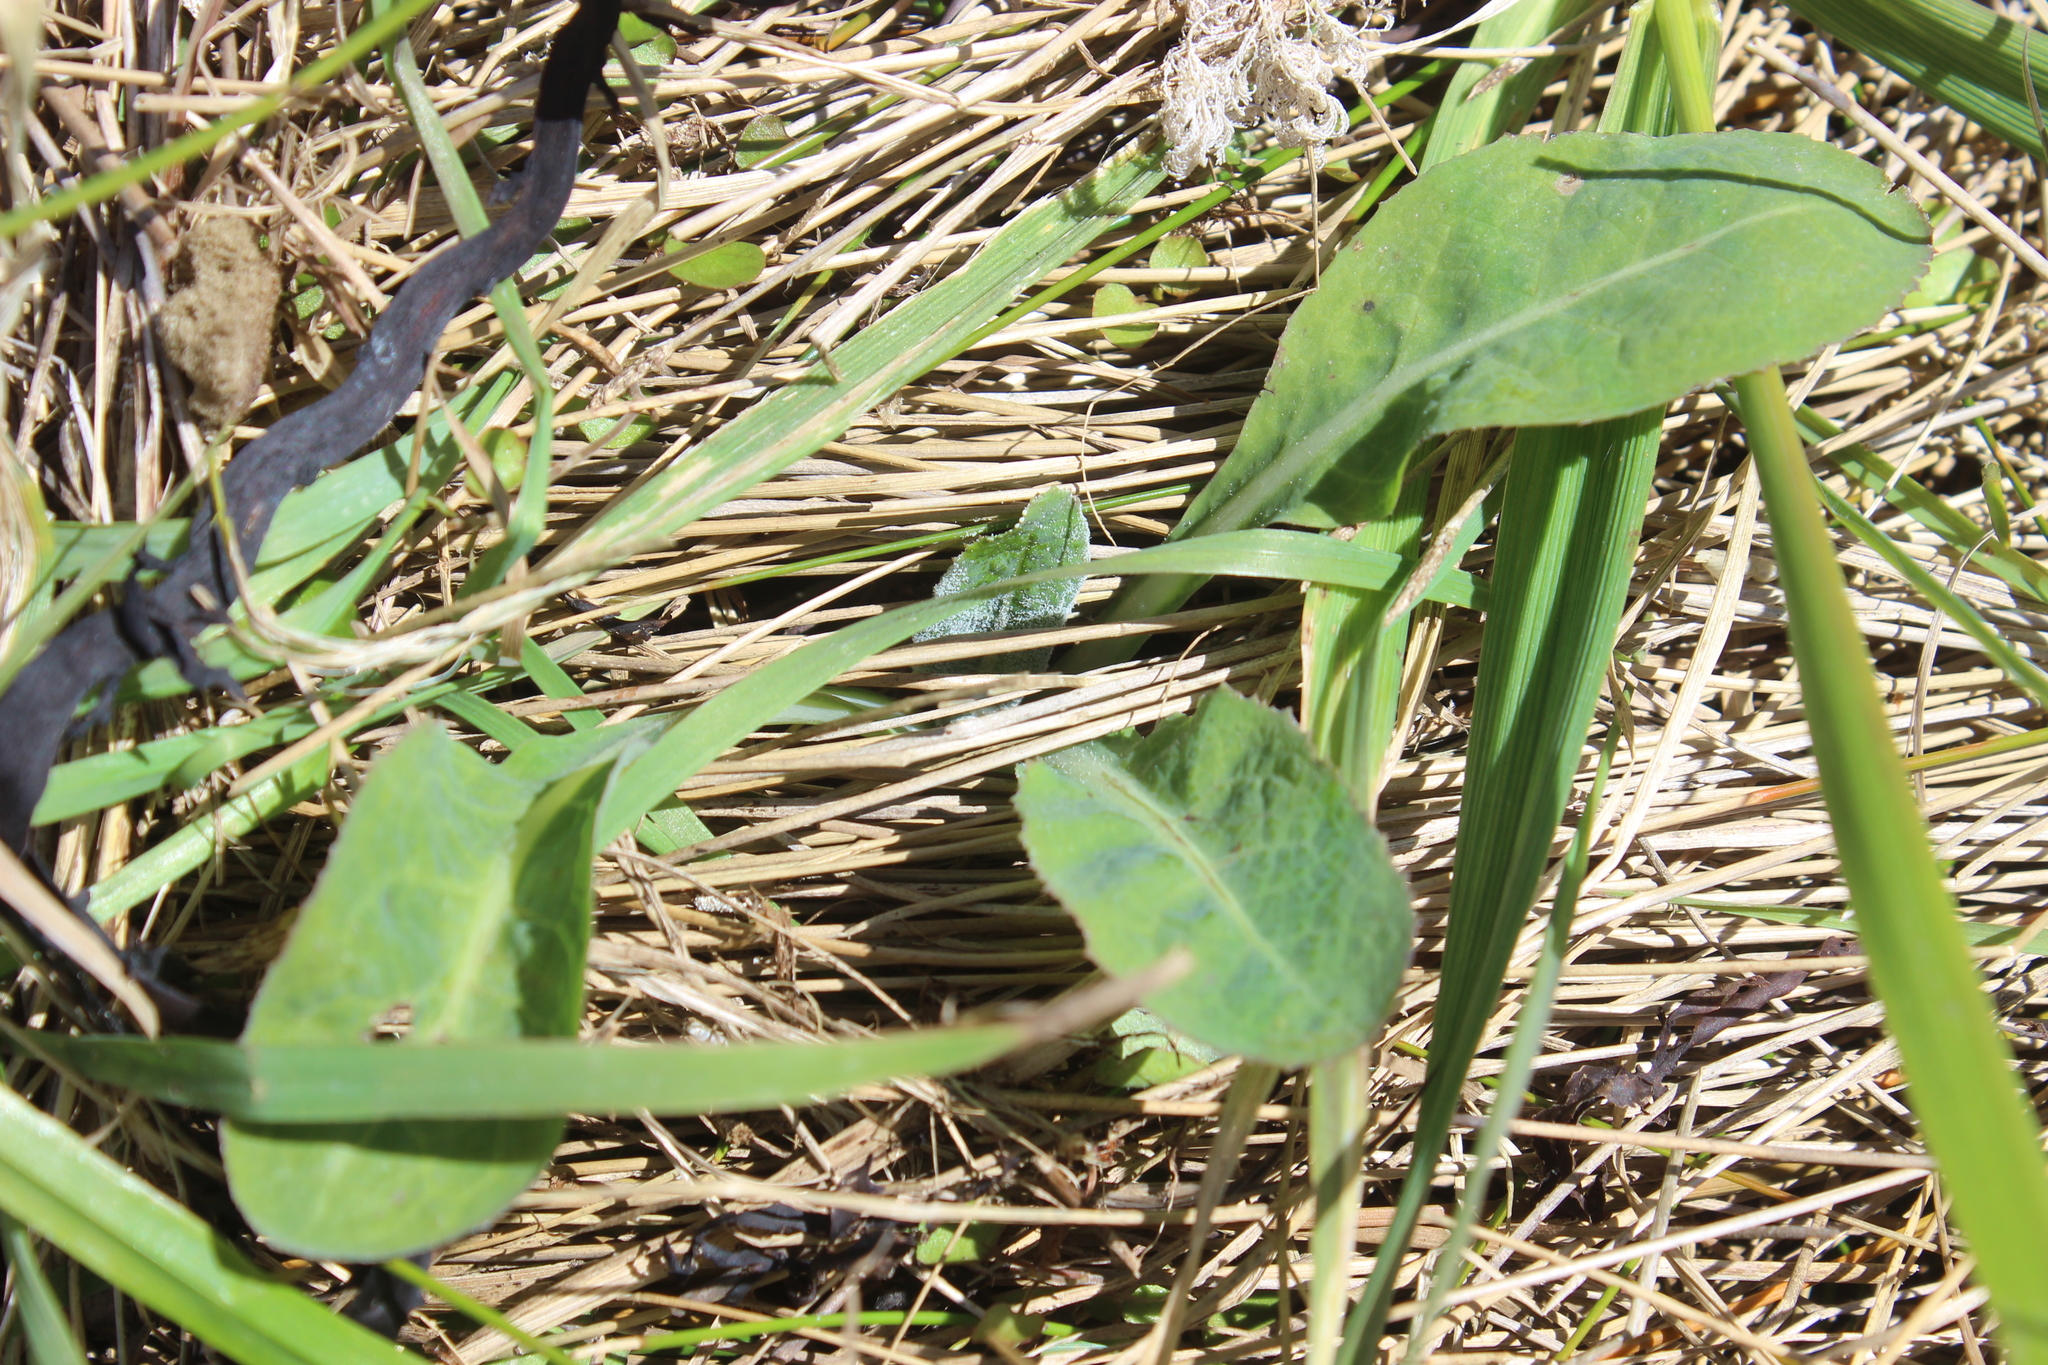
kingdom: Plantae
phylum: Tracheophyta
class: Magnoliopsida
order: Asterales
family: Asteraceae
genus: Sonchus
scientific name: Sonchus kirkii
